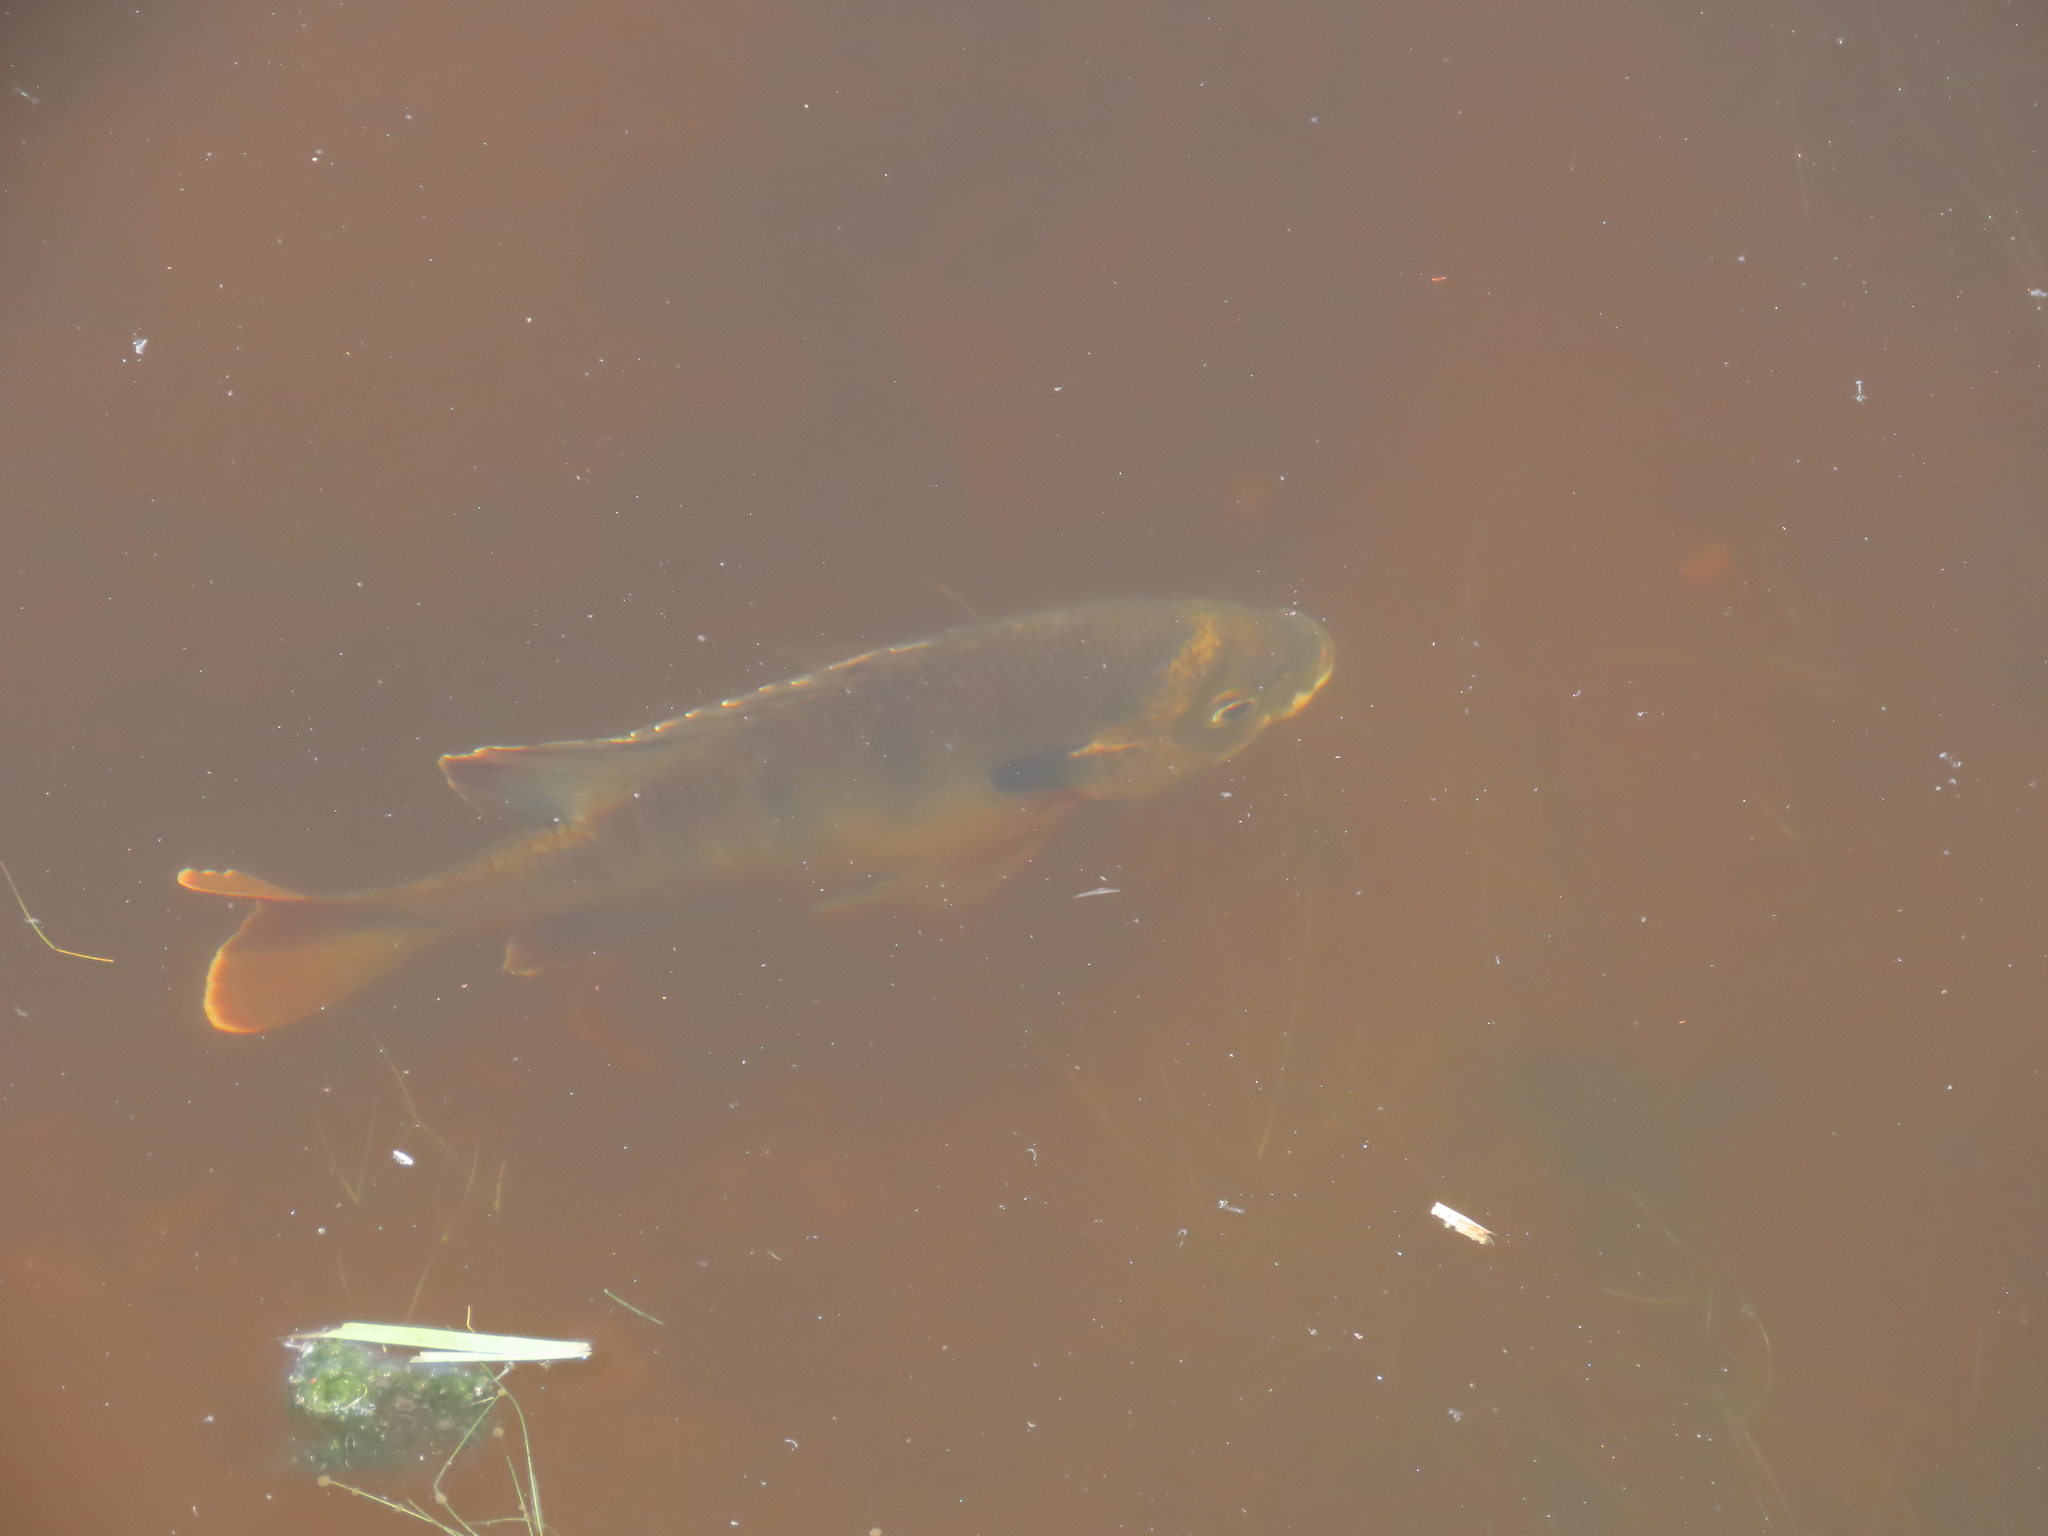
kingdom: Animalia
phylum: Chordata
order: Perciformes
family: Centrarchidae
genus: Lepomis
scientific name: Lepomis macrochirus
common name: Bluegill
